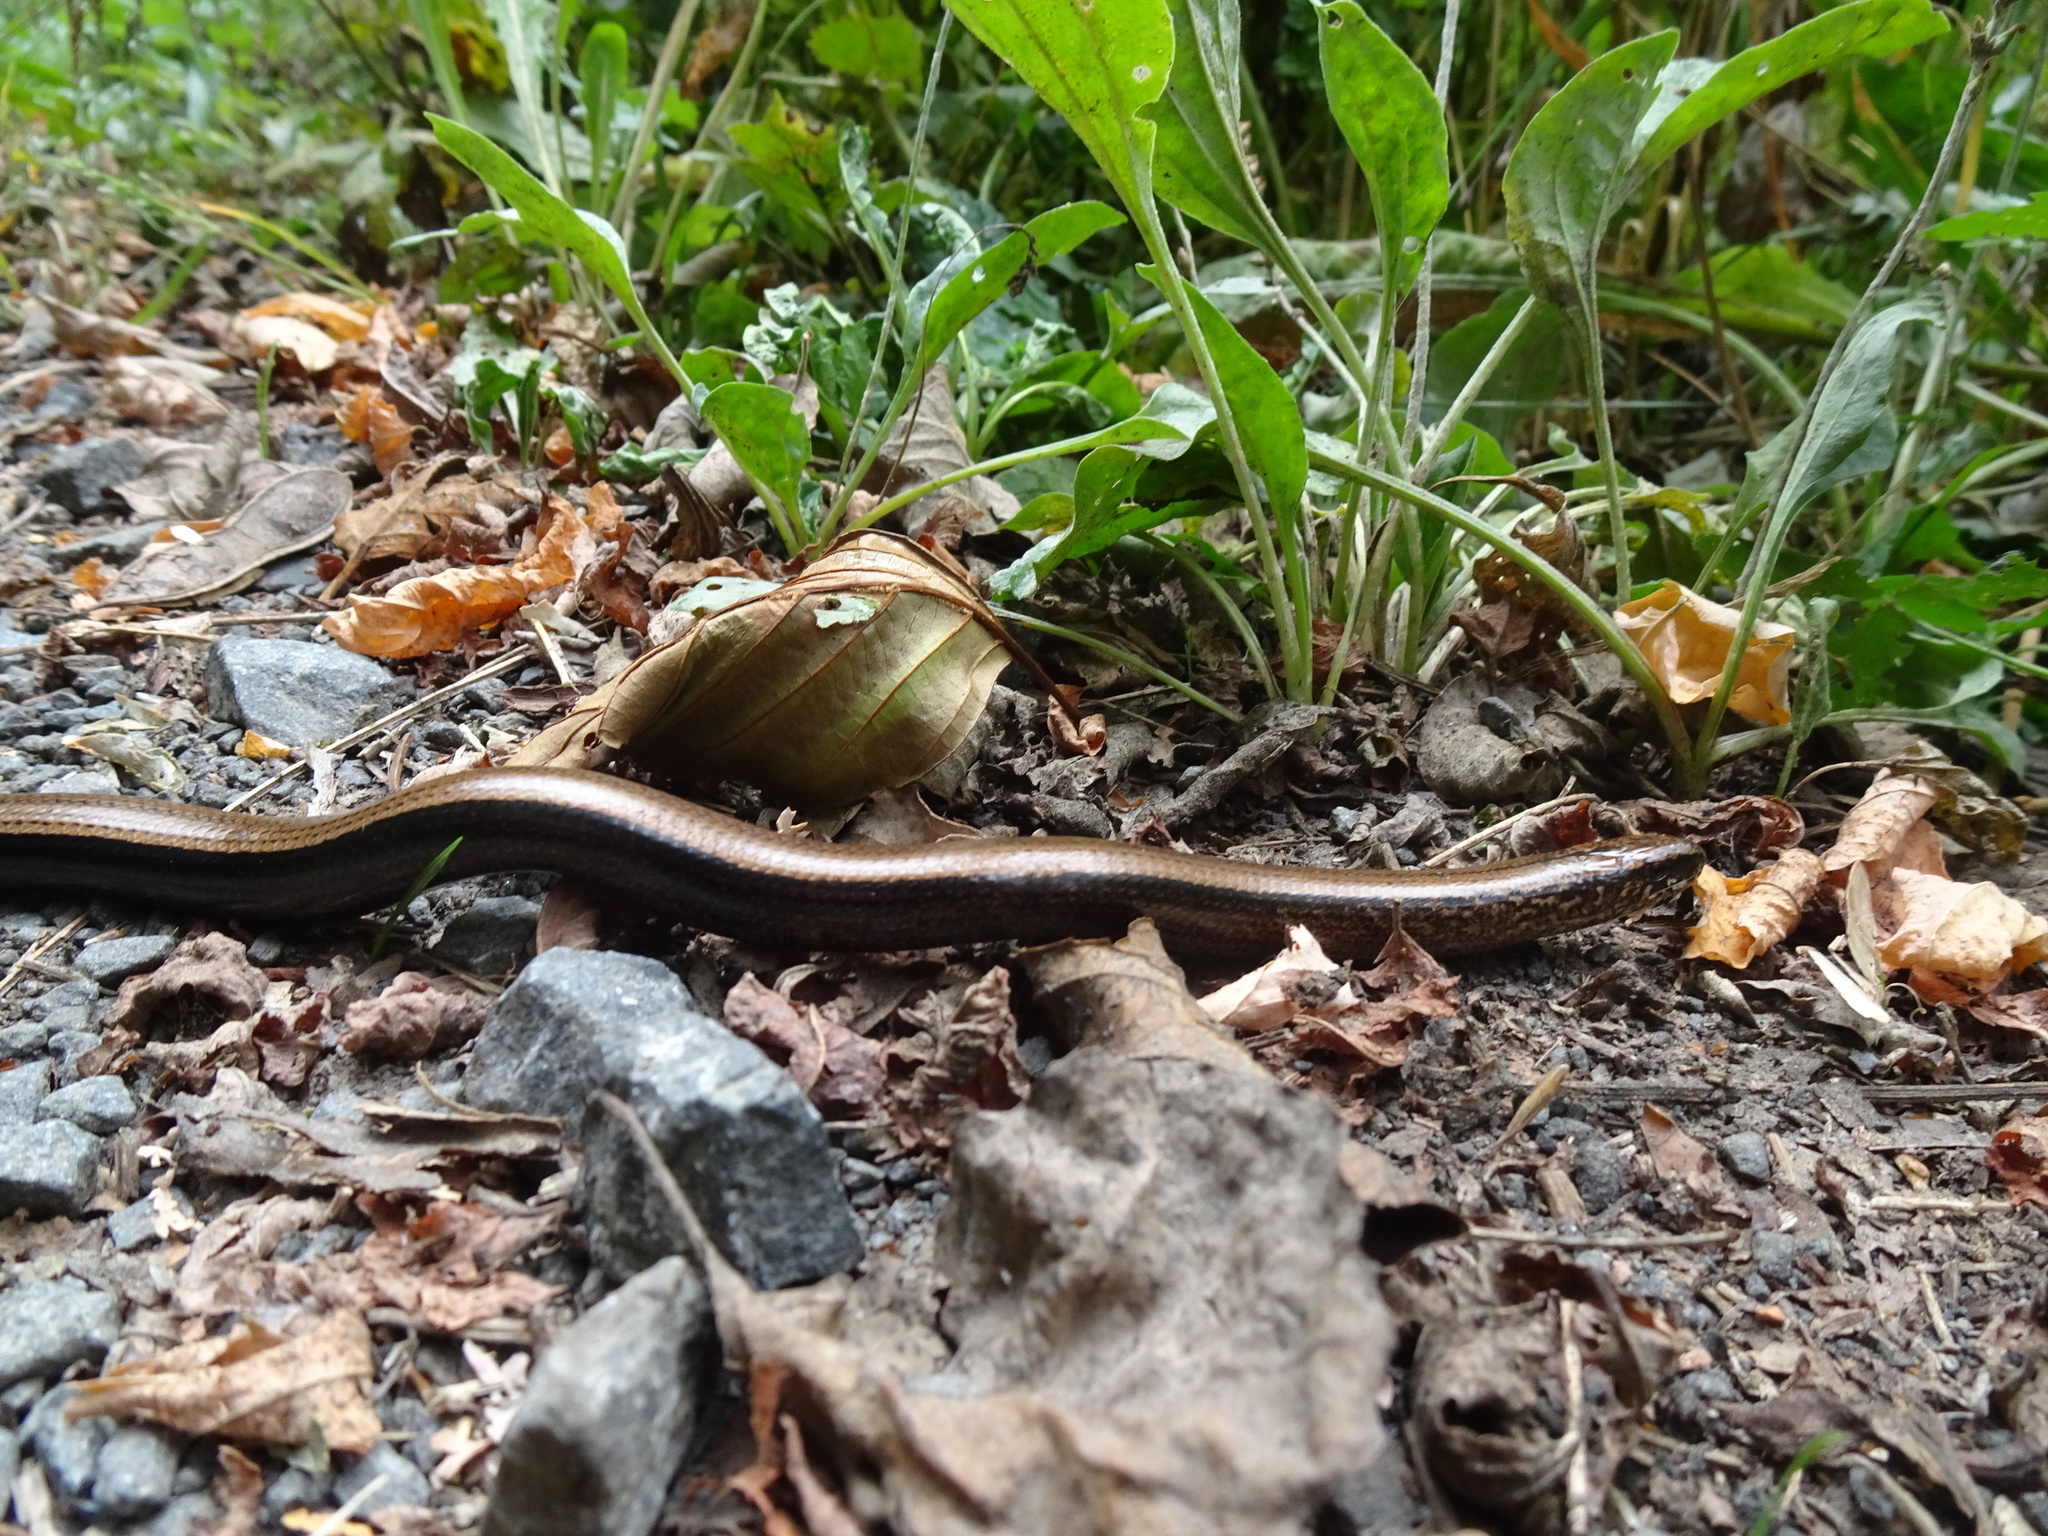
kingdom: Animalia
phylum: Chordata
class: Squamata
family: Anguidae
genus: Anguis
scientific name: Anguis fragilis
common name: Slow worm
